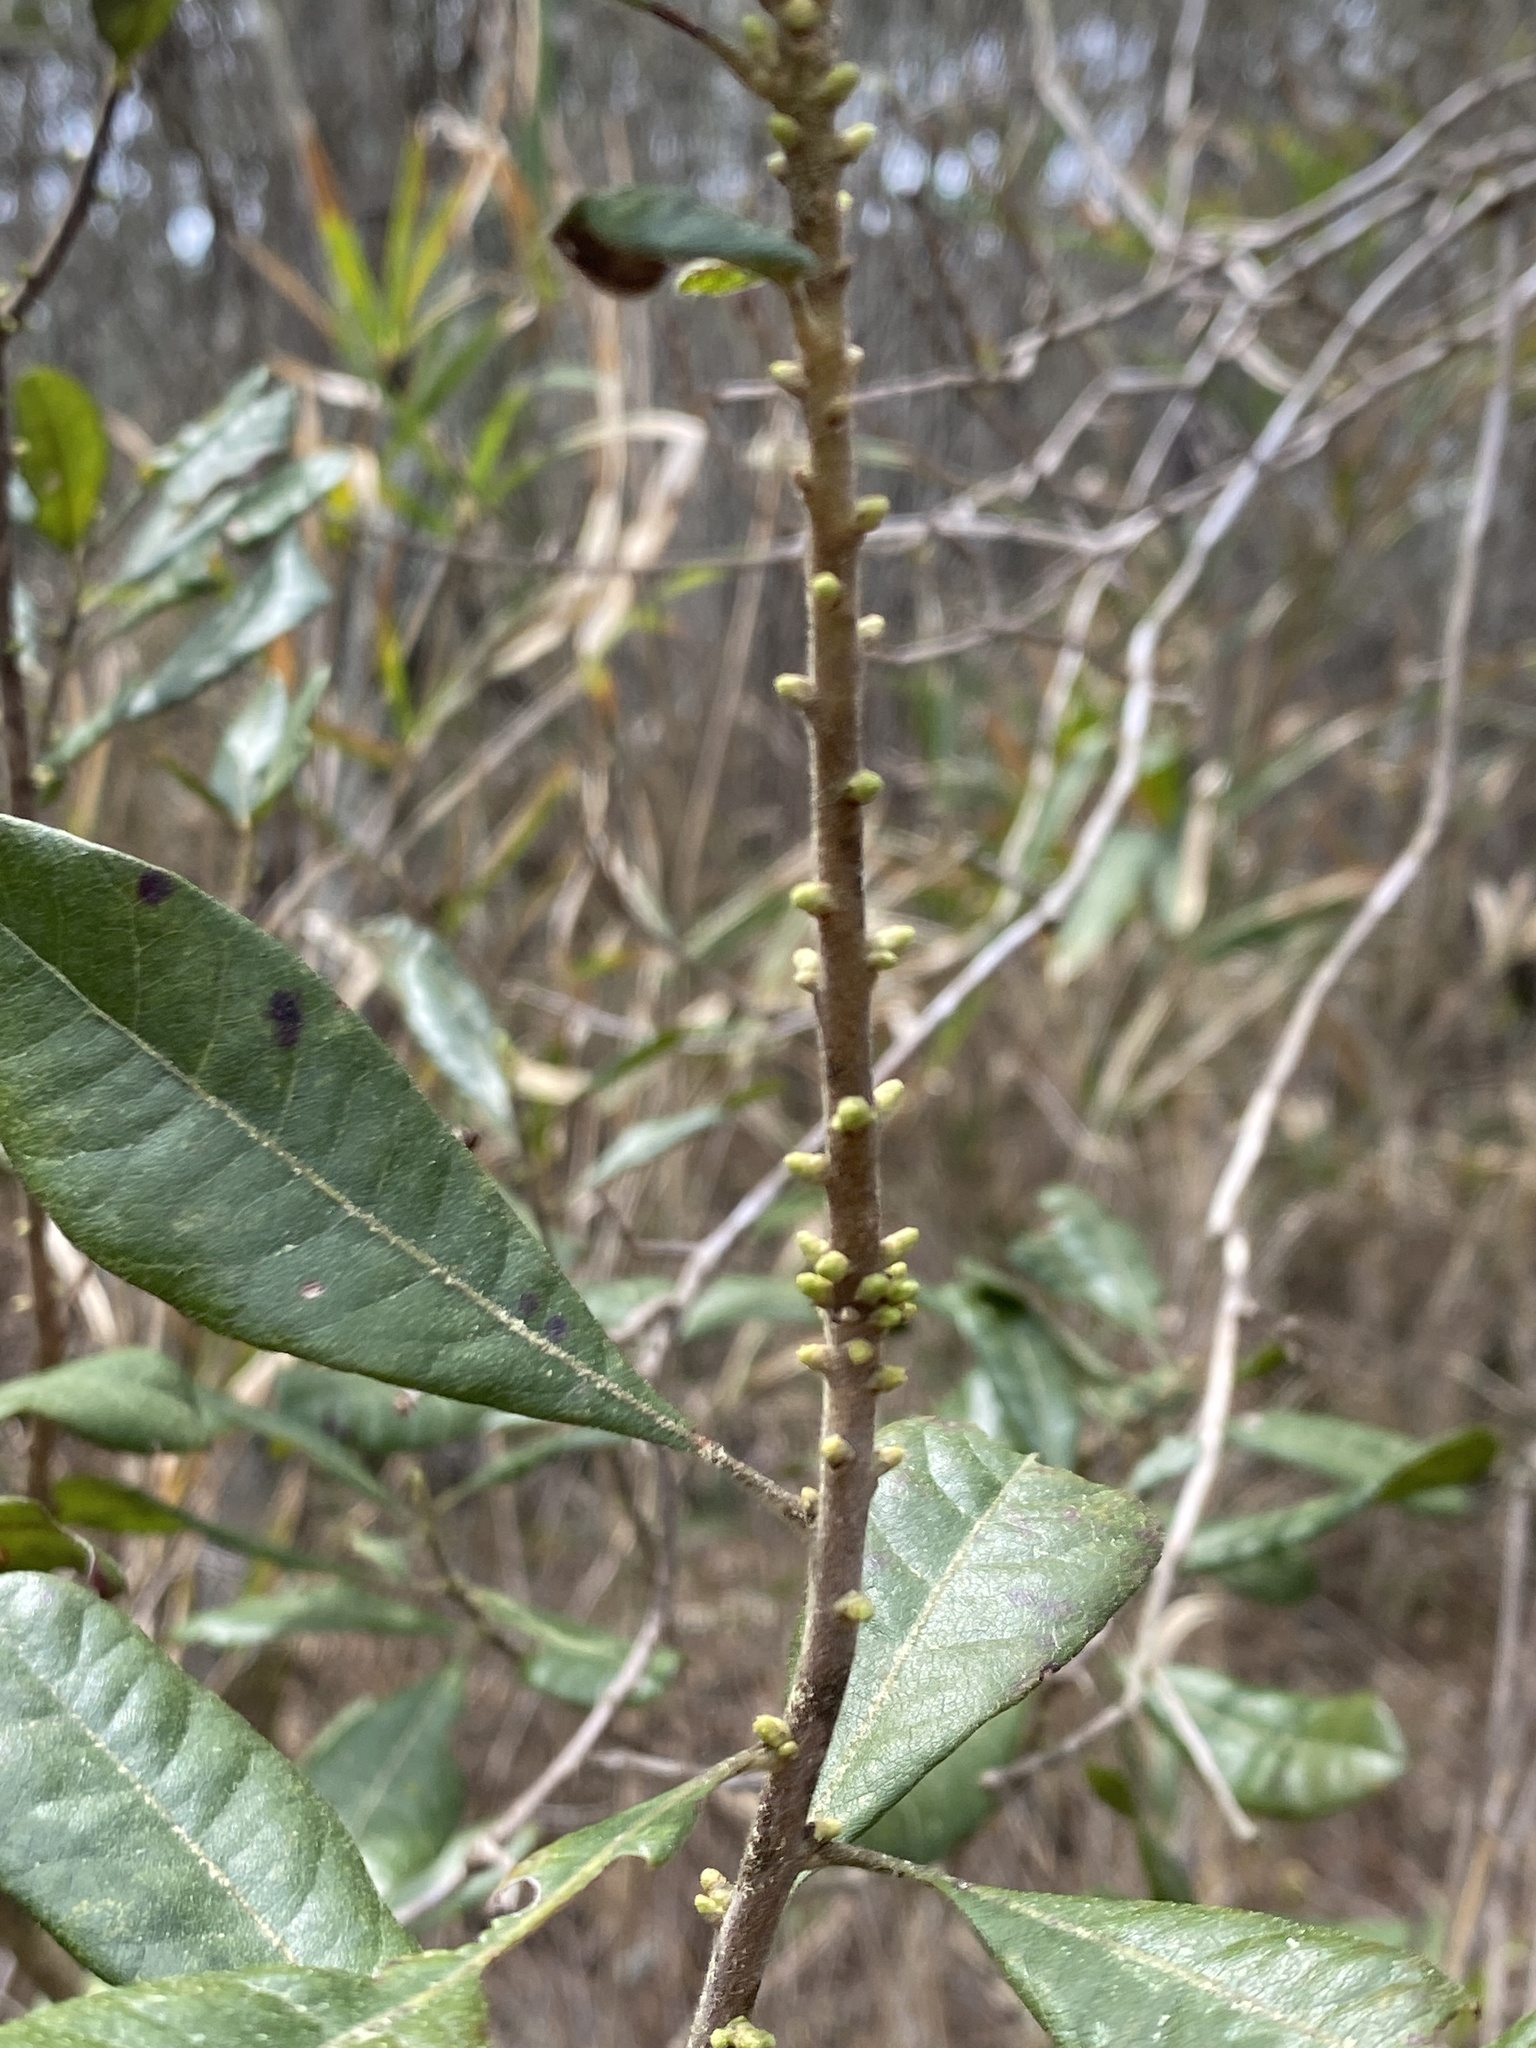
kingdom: Plantae
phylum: Tracheophyta
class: Magnoliopsida
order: Fagales
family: Myricaceae
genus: Morella
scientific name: Morella caroliniensis
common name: Evergreen bayberry
